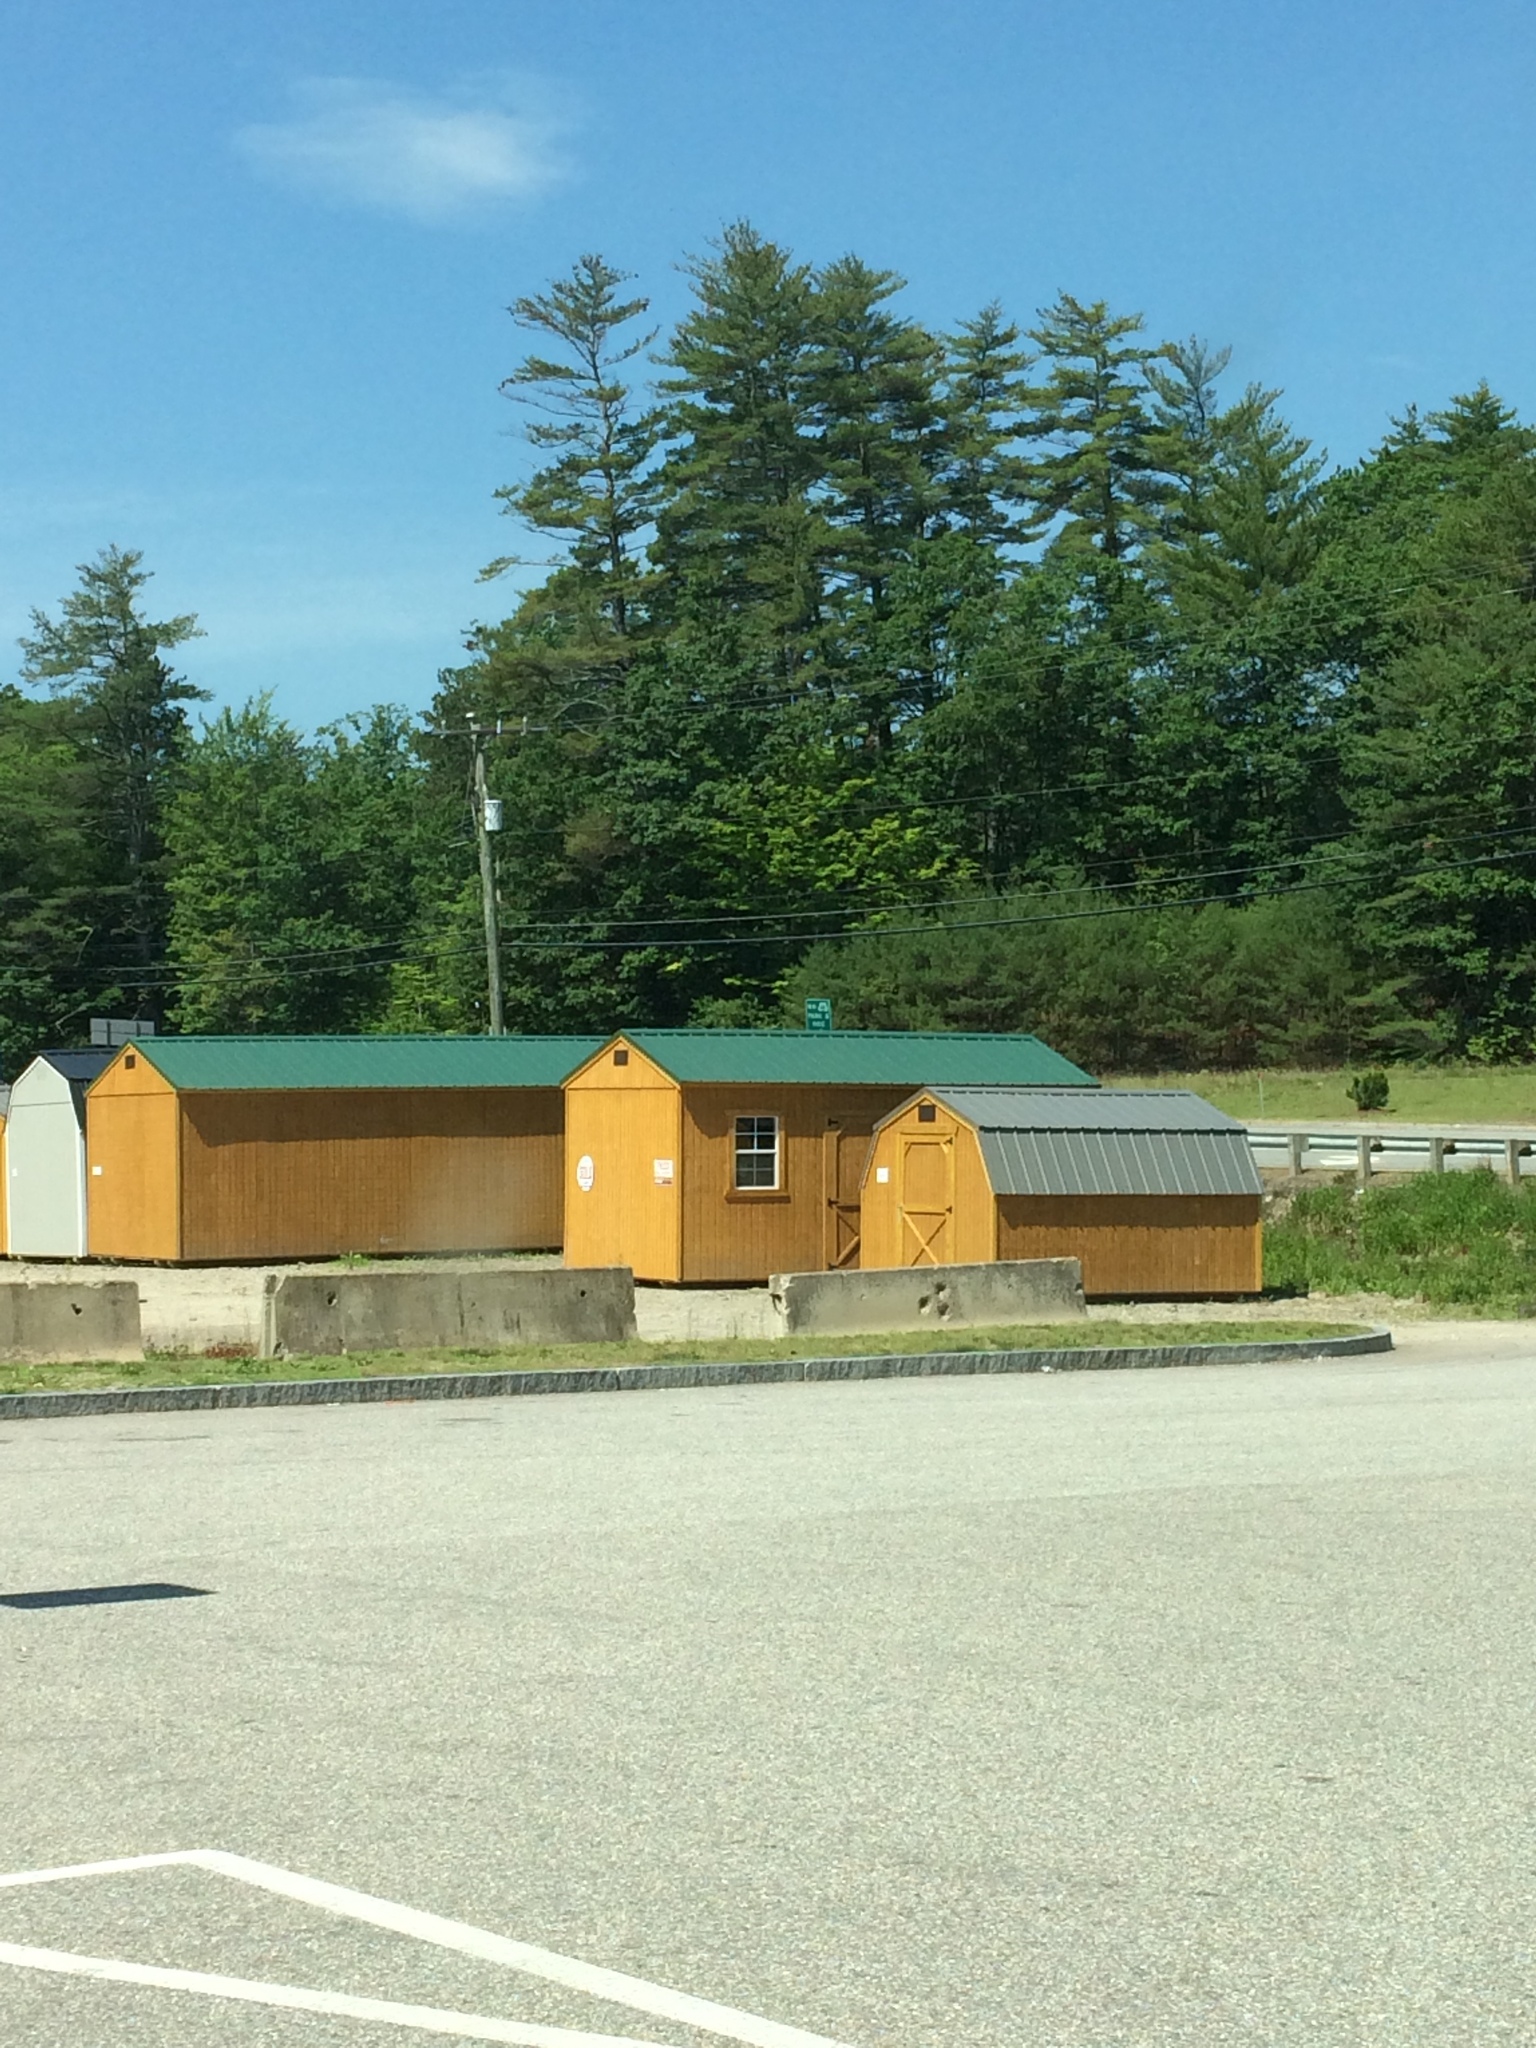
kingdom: Plantae
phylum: Tracheophyta
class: Pinopsida
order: Pinales
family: Pinaceae
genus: Pinus
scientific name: Pinus strobus
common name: Weymouth pine
